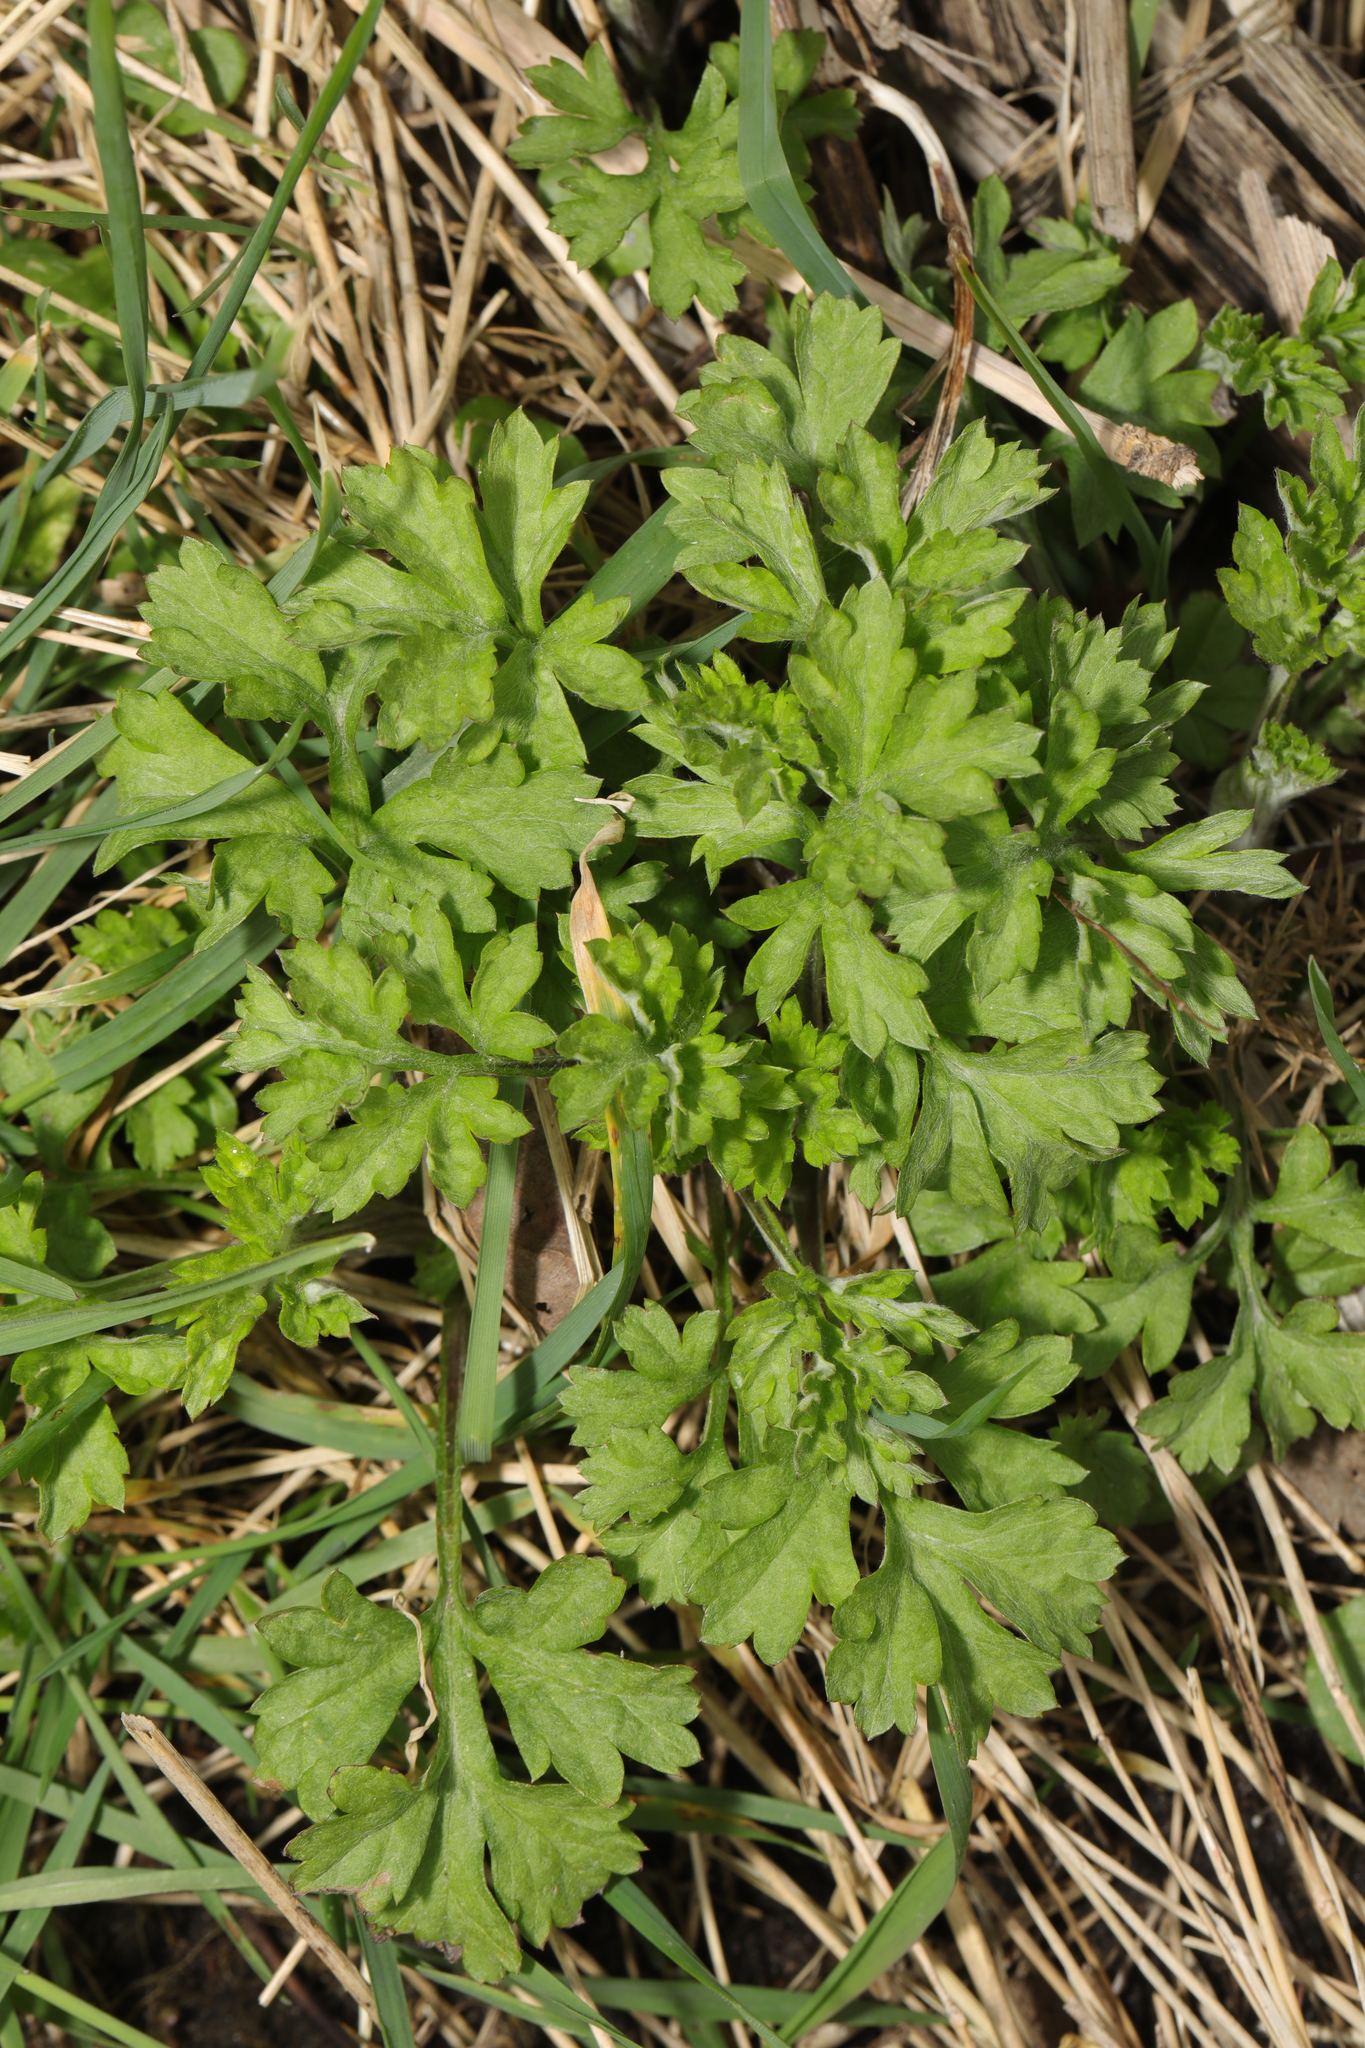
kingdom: Plantae
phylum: Tracheophyta
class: Magnoliopsida
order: Asterales
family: Asteraceae
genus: Artemisia
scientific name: Artemisia vulgaris
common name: Mugwort
